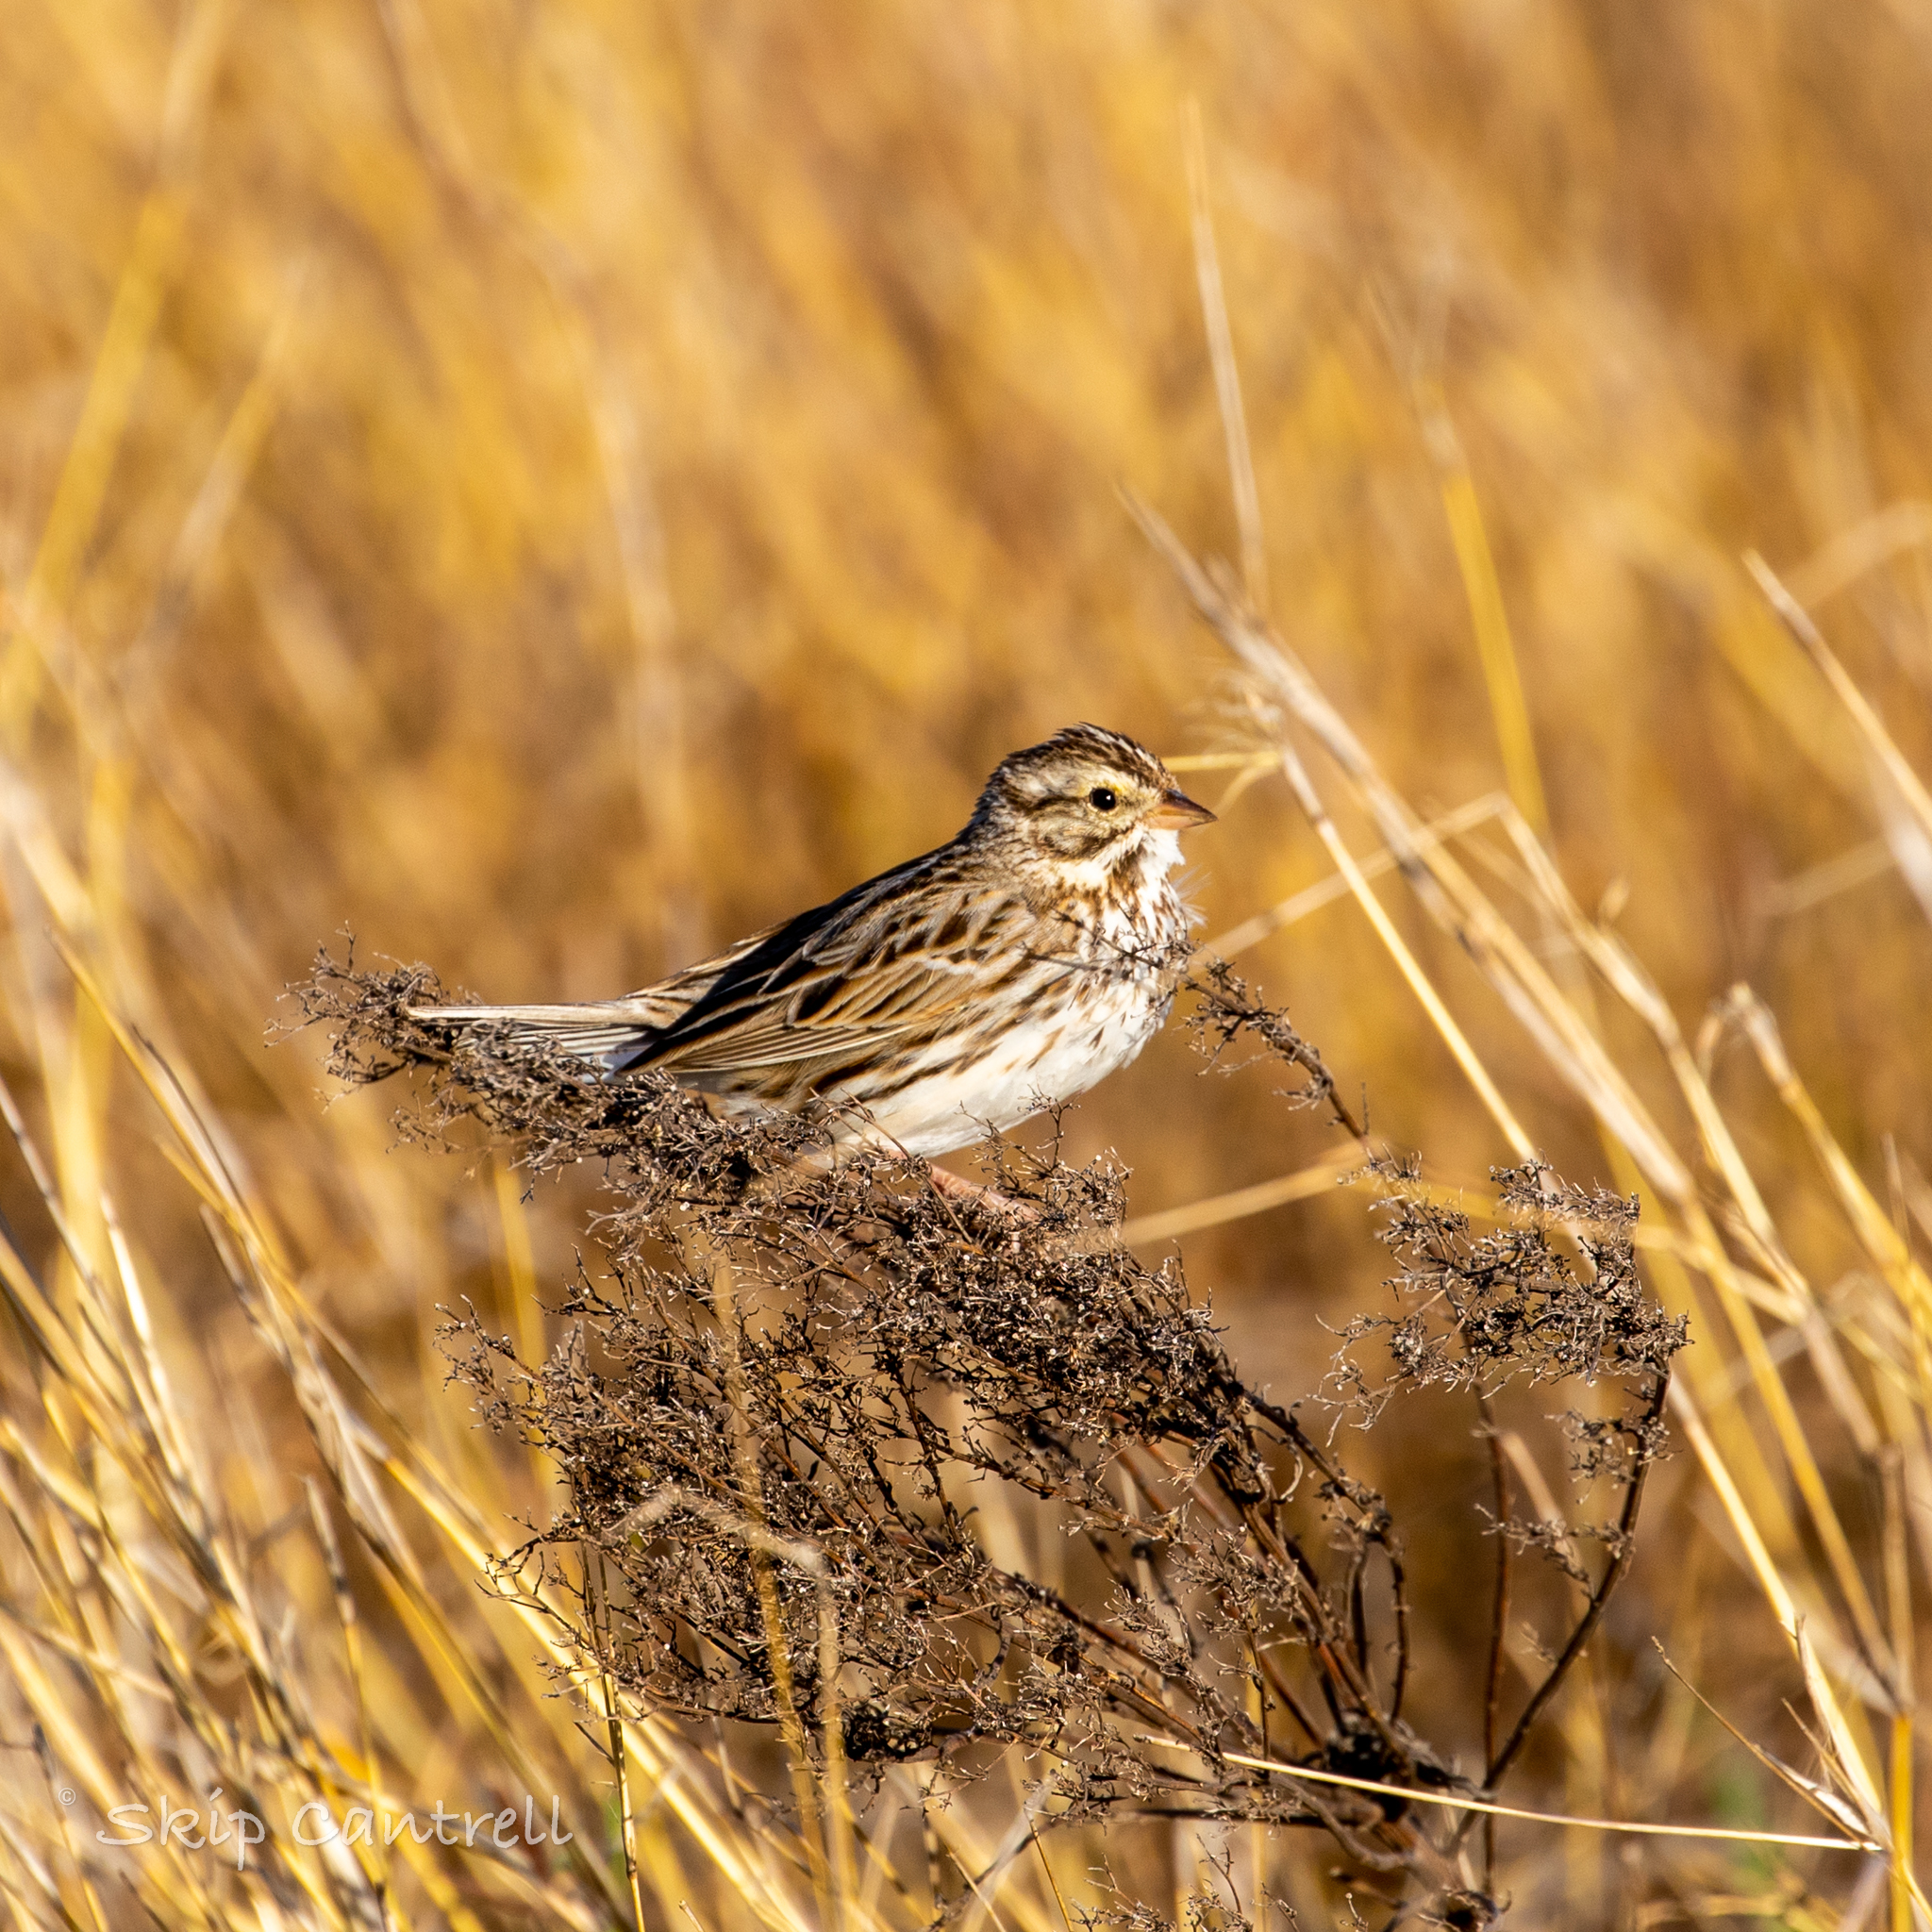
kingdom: Animalia
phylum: Chordata
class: Aves
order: Passeriformes
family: Passerellidae
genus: Passerculus
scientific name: Passerculus sandwichensis
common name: Savannah sparrow
